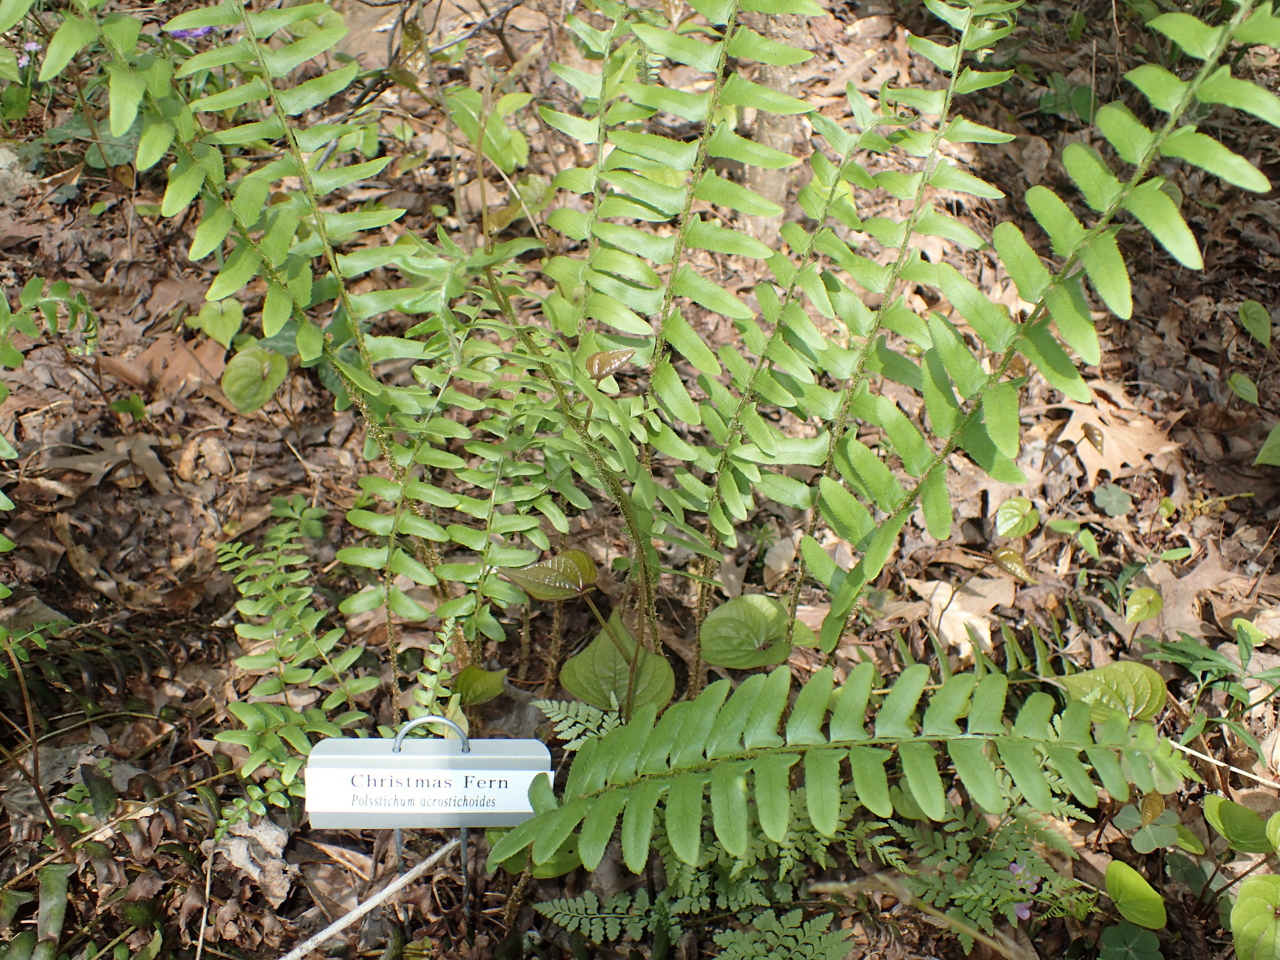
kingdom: Plantae
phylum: Tracheophyta
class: Polypodiopsida
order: Polypodiales
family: Dryopteridaceae
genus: Polystichum
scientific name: Polystichum acrostichoides
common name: Christmas fern
